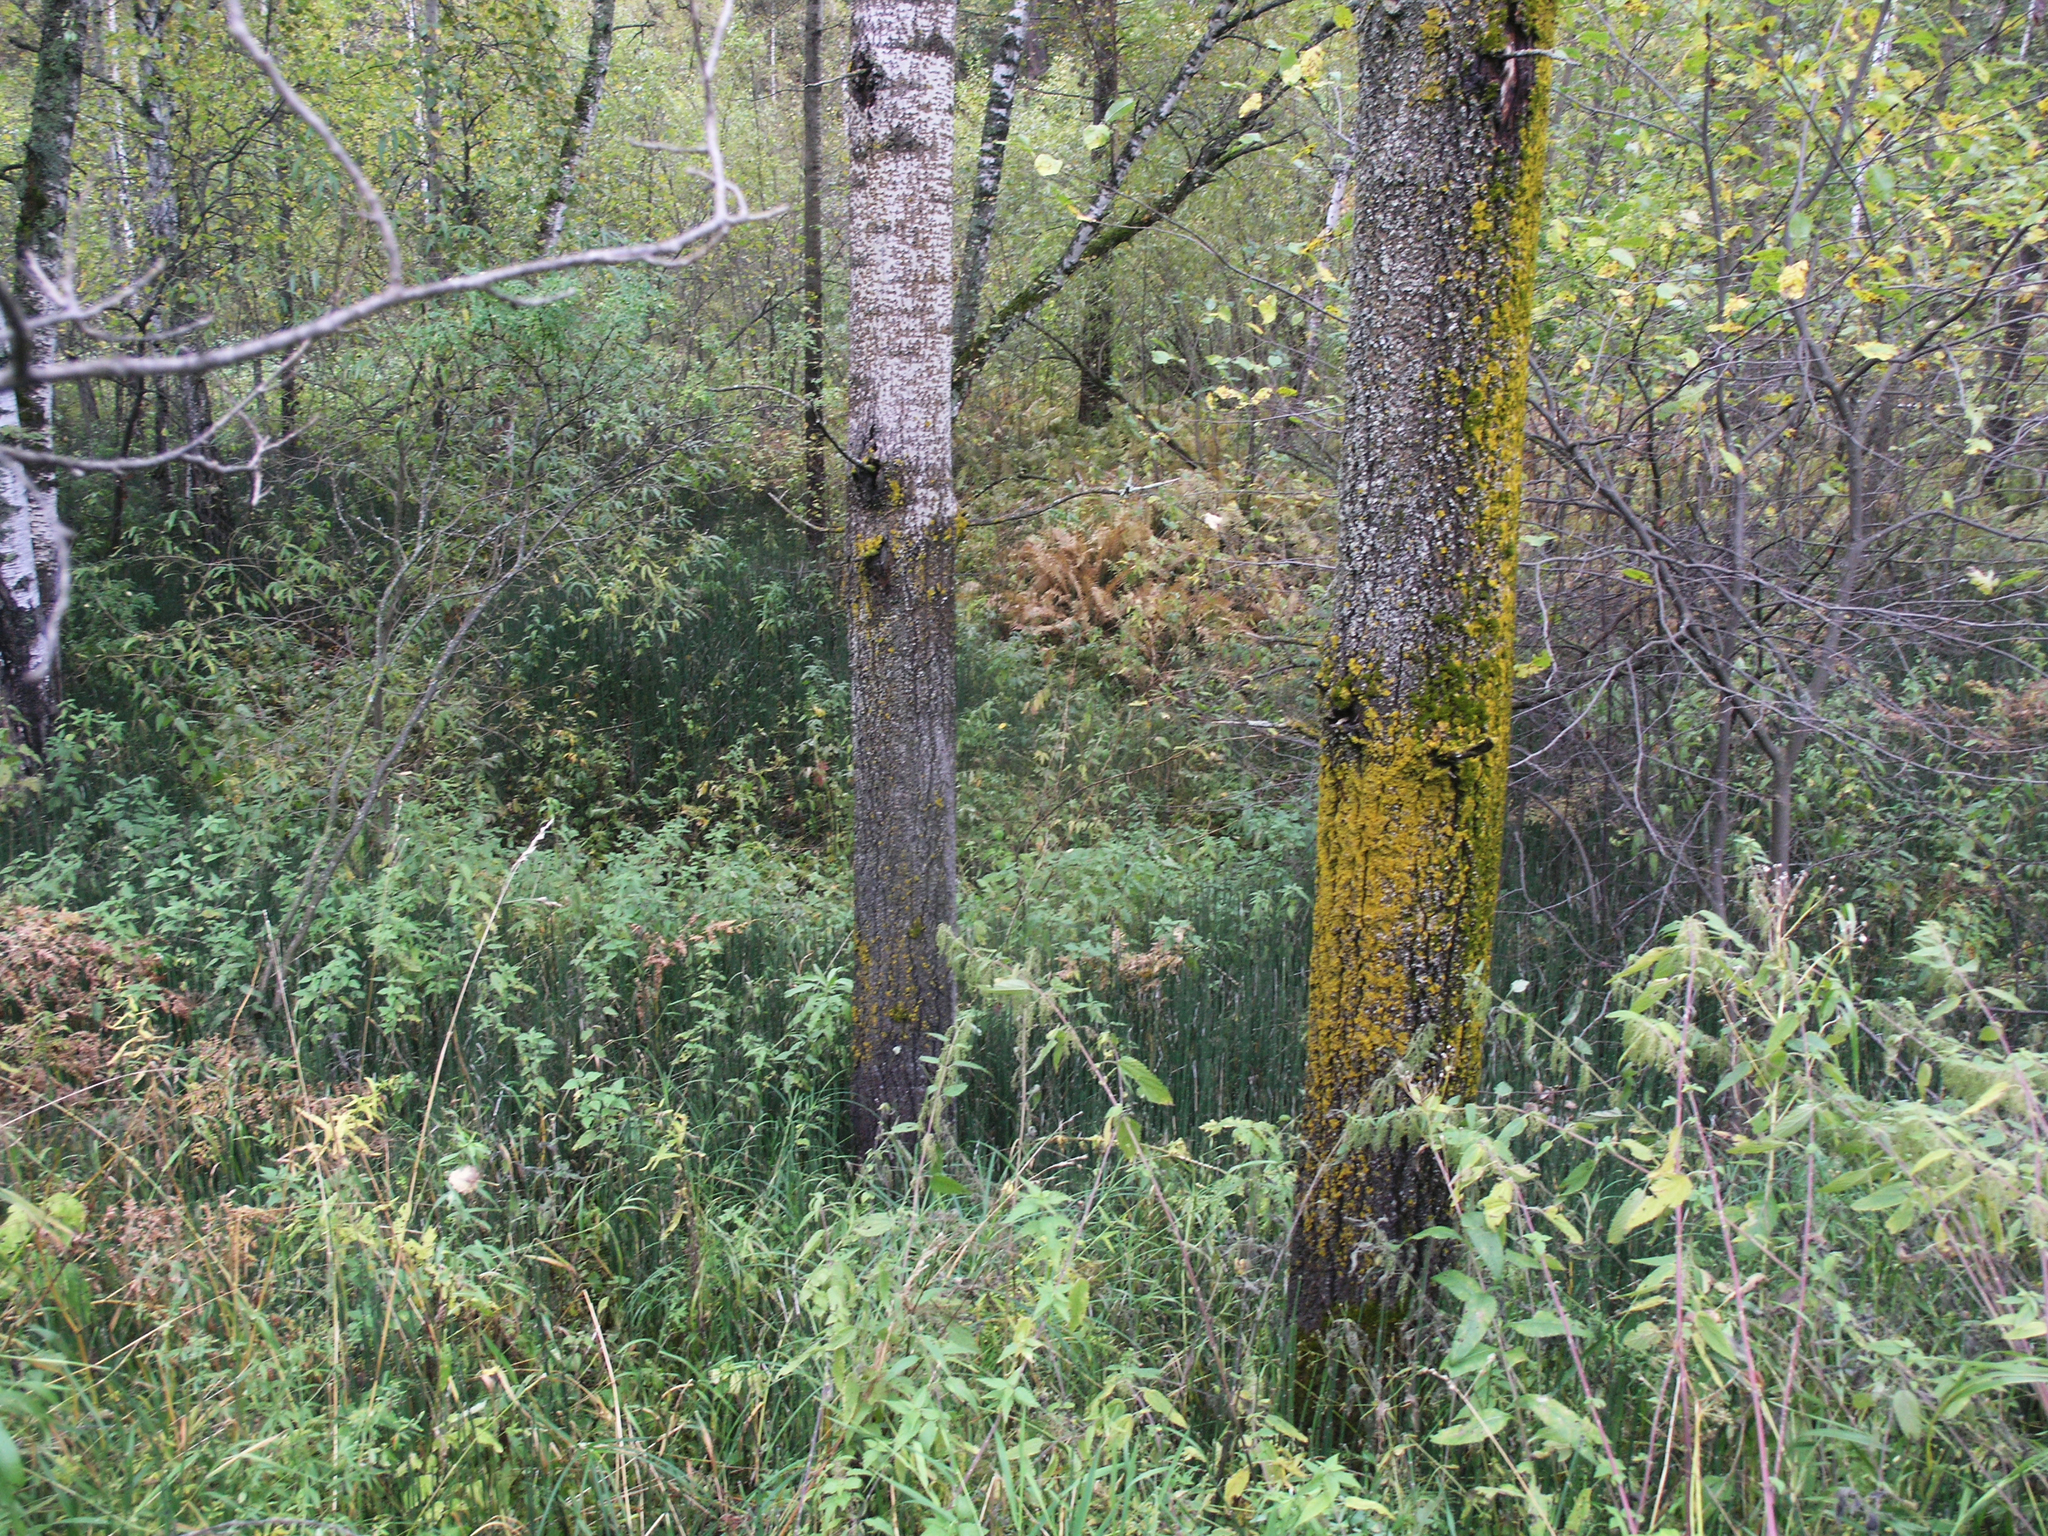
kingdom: Plantae
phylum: Tracheophyta
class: Magnoliopsida
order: Malpighiales
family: Salicaceae
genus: Populus
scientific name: Populus tremula
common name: European aspen
